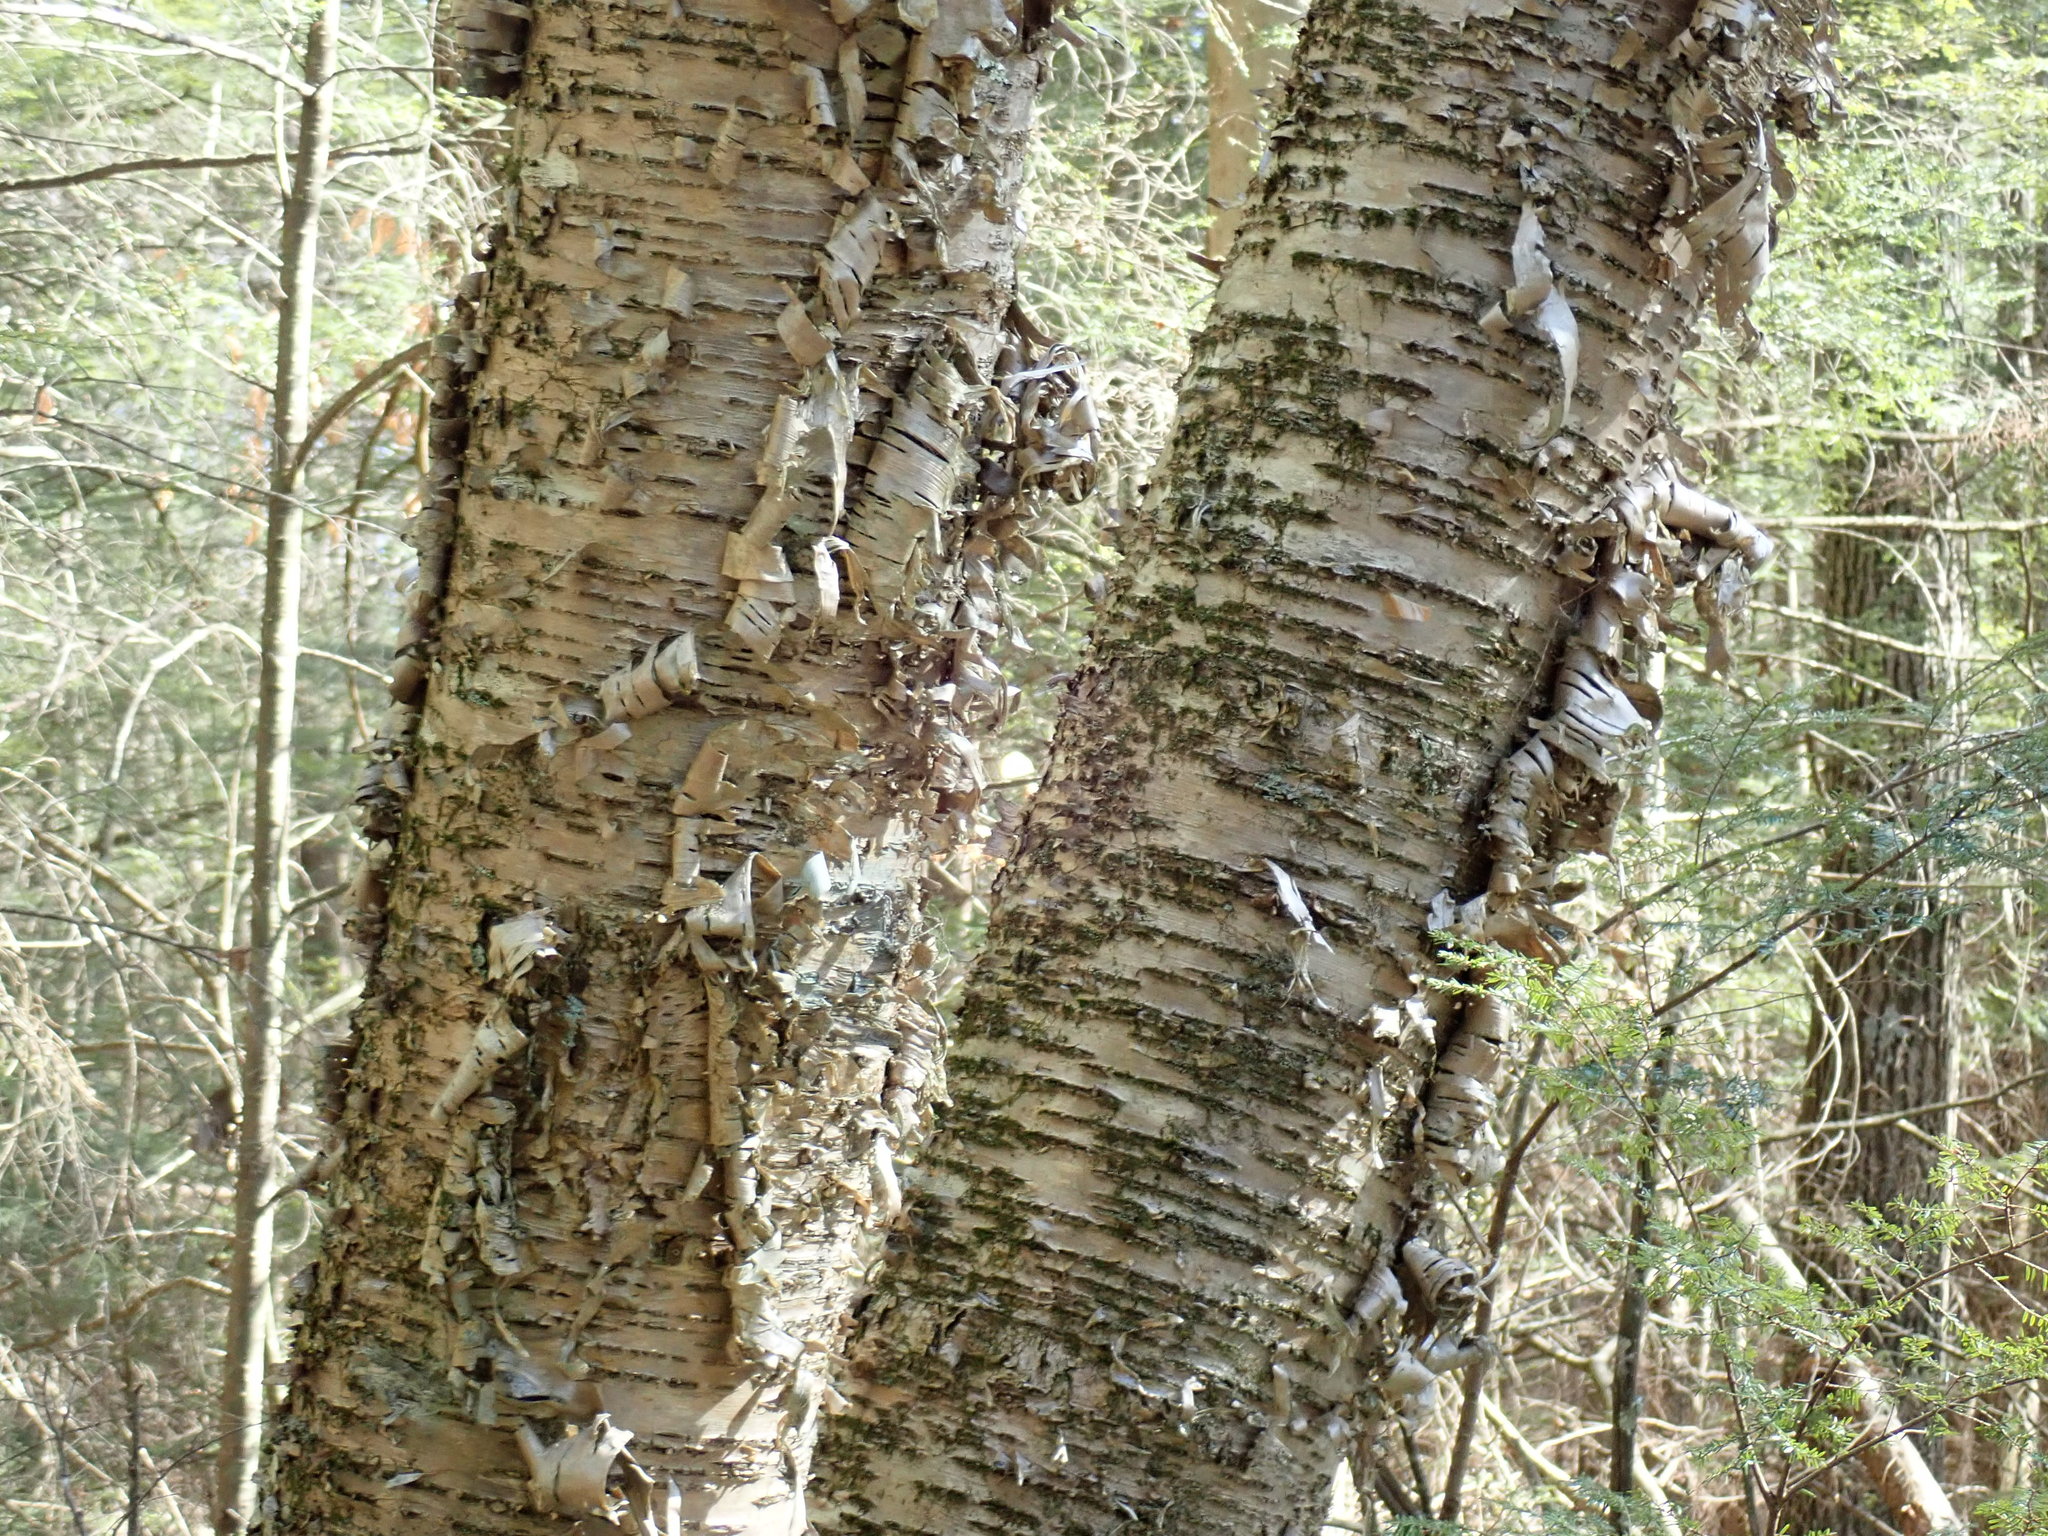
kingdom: Plantae
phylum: Tracheophyta
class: Magnoliopsida
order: Fagales
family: Betulaceae
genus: Betula
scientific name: Betula alleghaniensis
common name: Yellow birch
